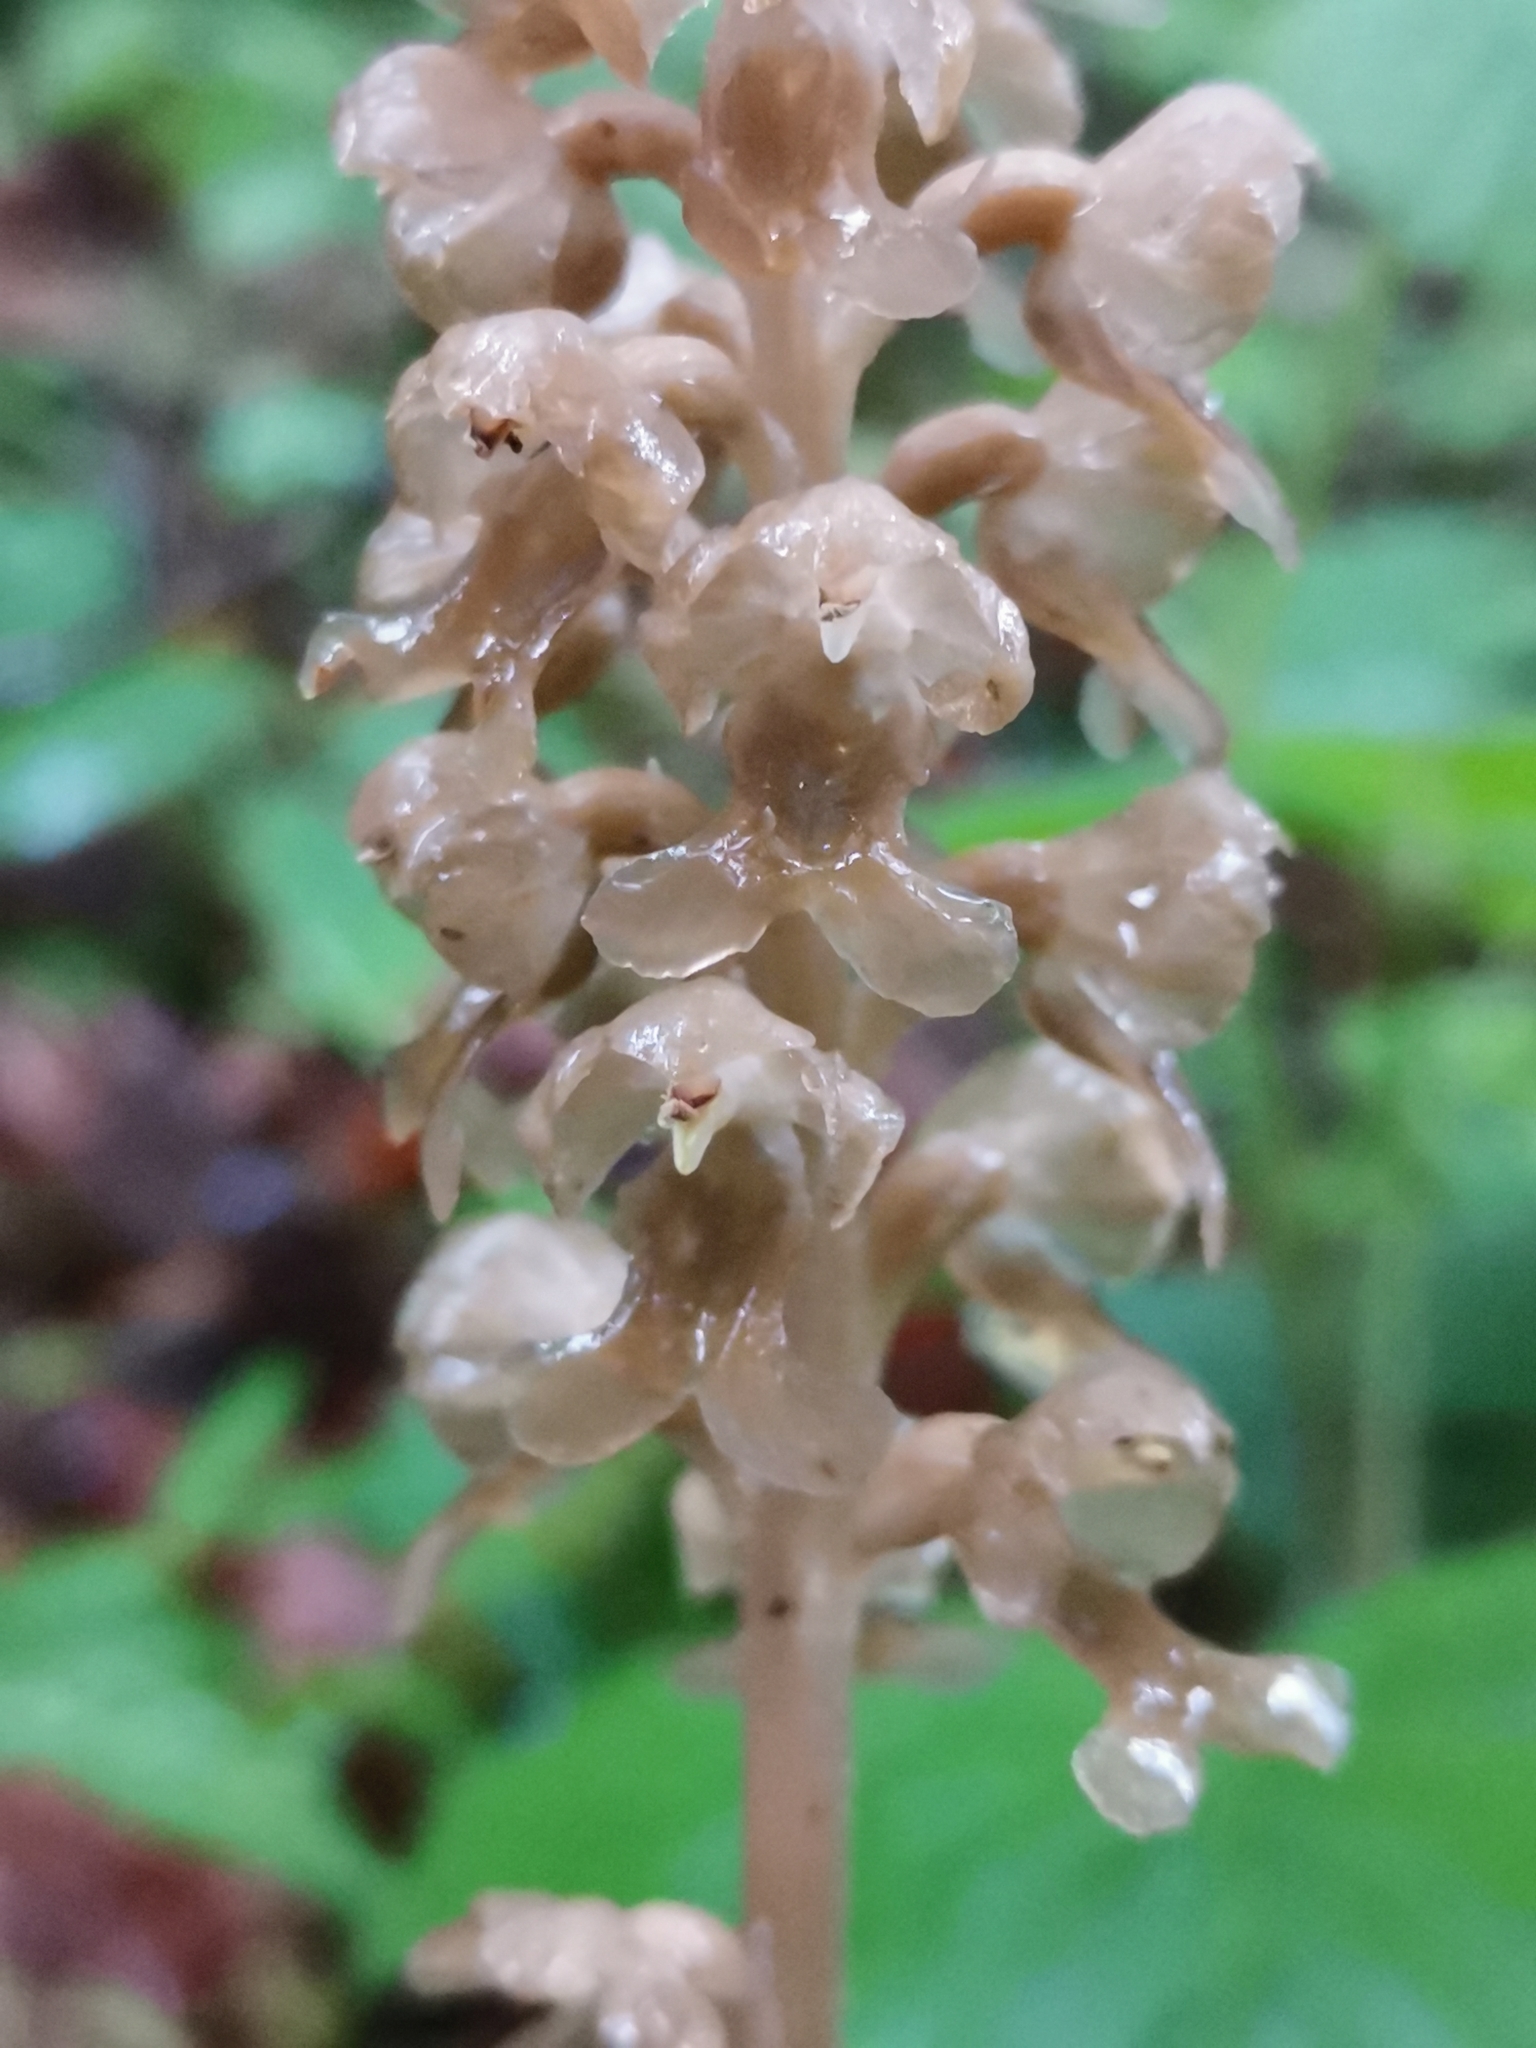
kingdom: Plantae
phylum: Tracheophyta
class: Liliopsida
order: Asparagales
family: Orchidaceae
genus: Neottia
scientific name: Neottia nidus-avis
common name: Bird's-nest orchid
